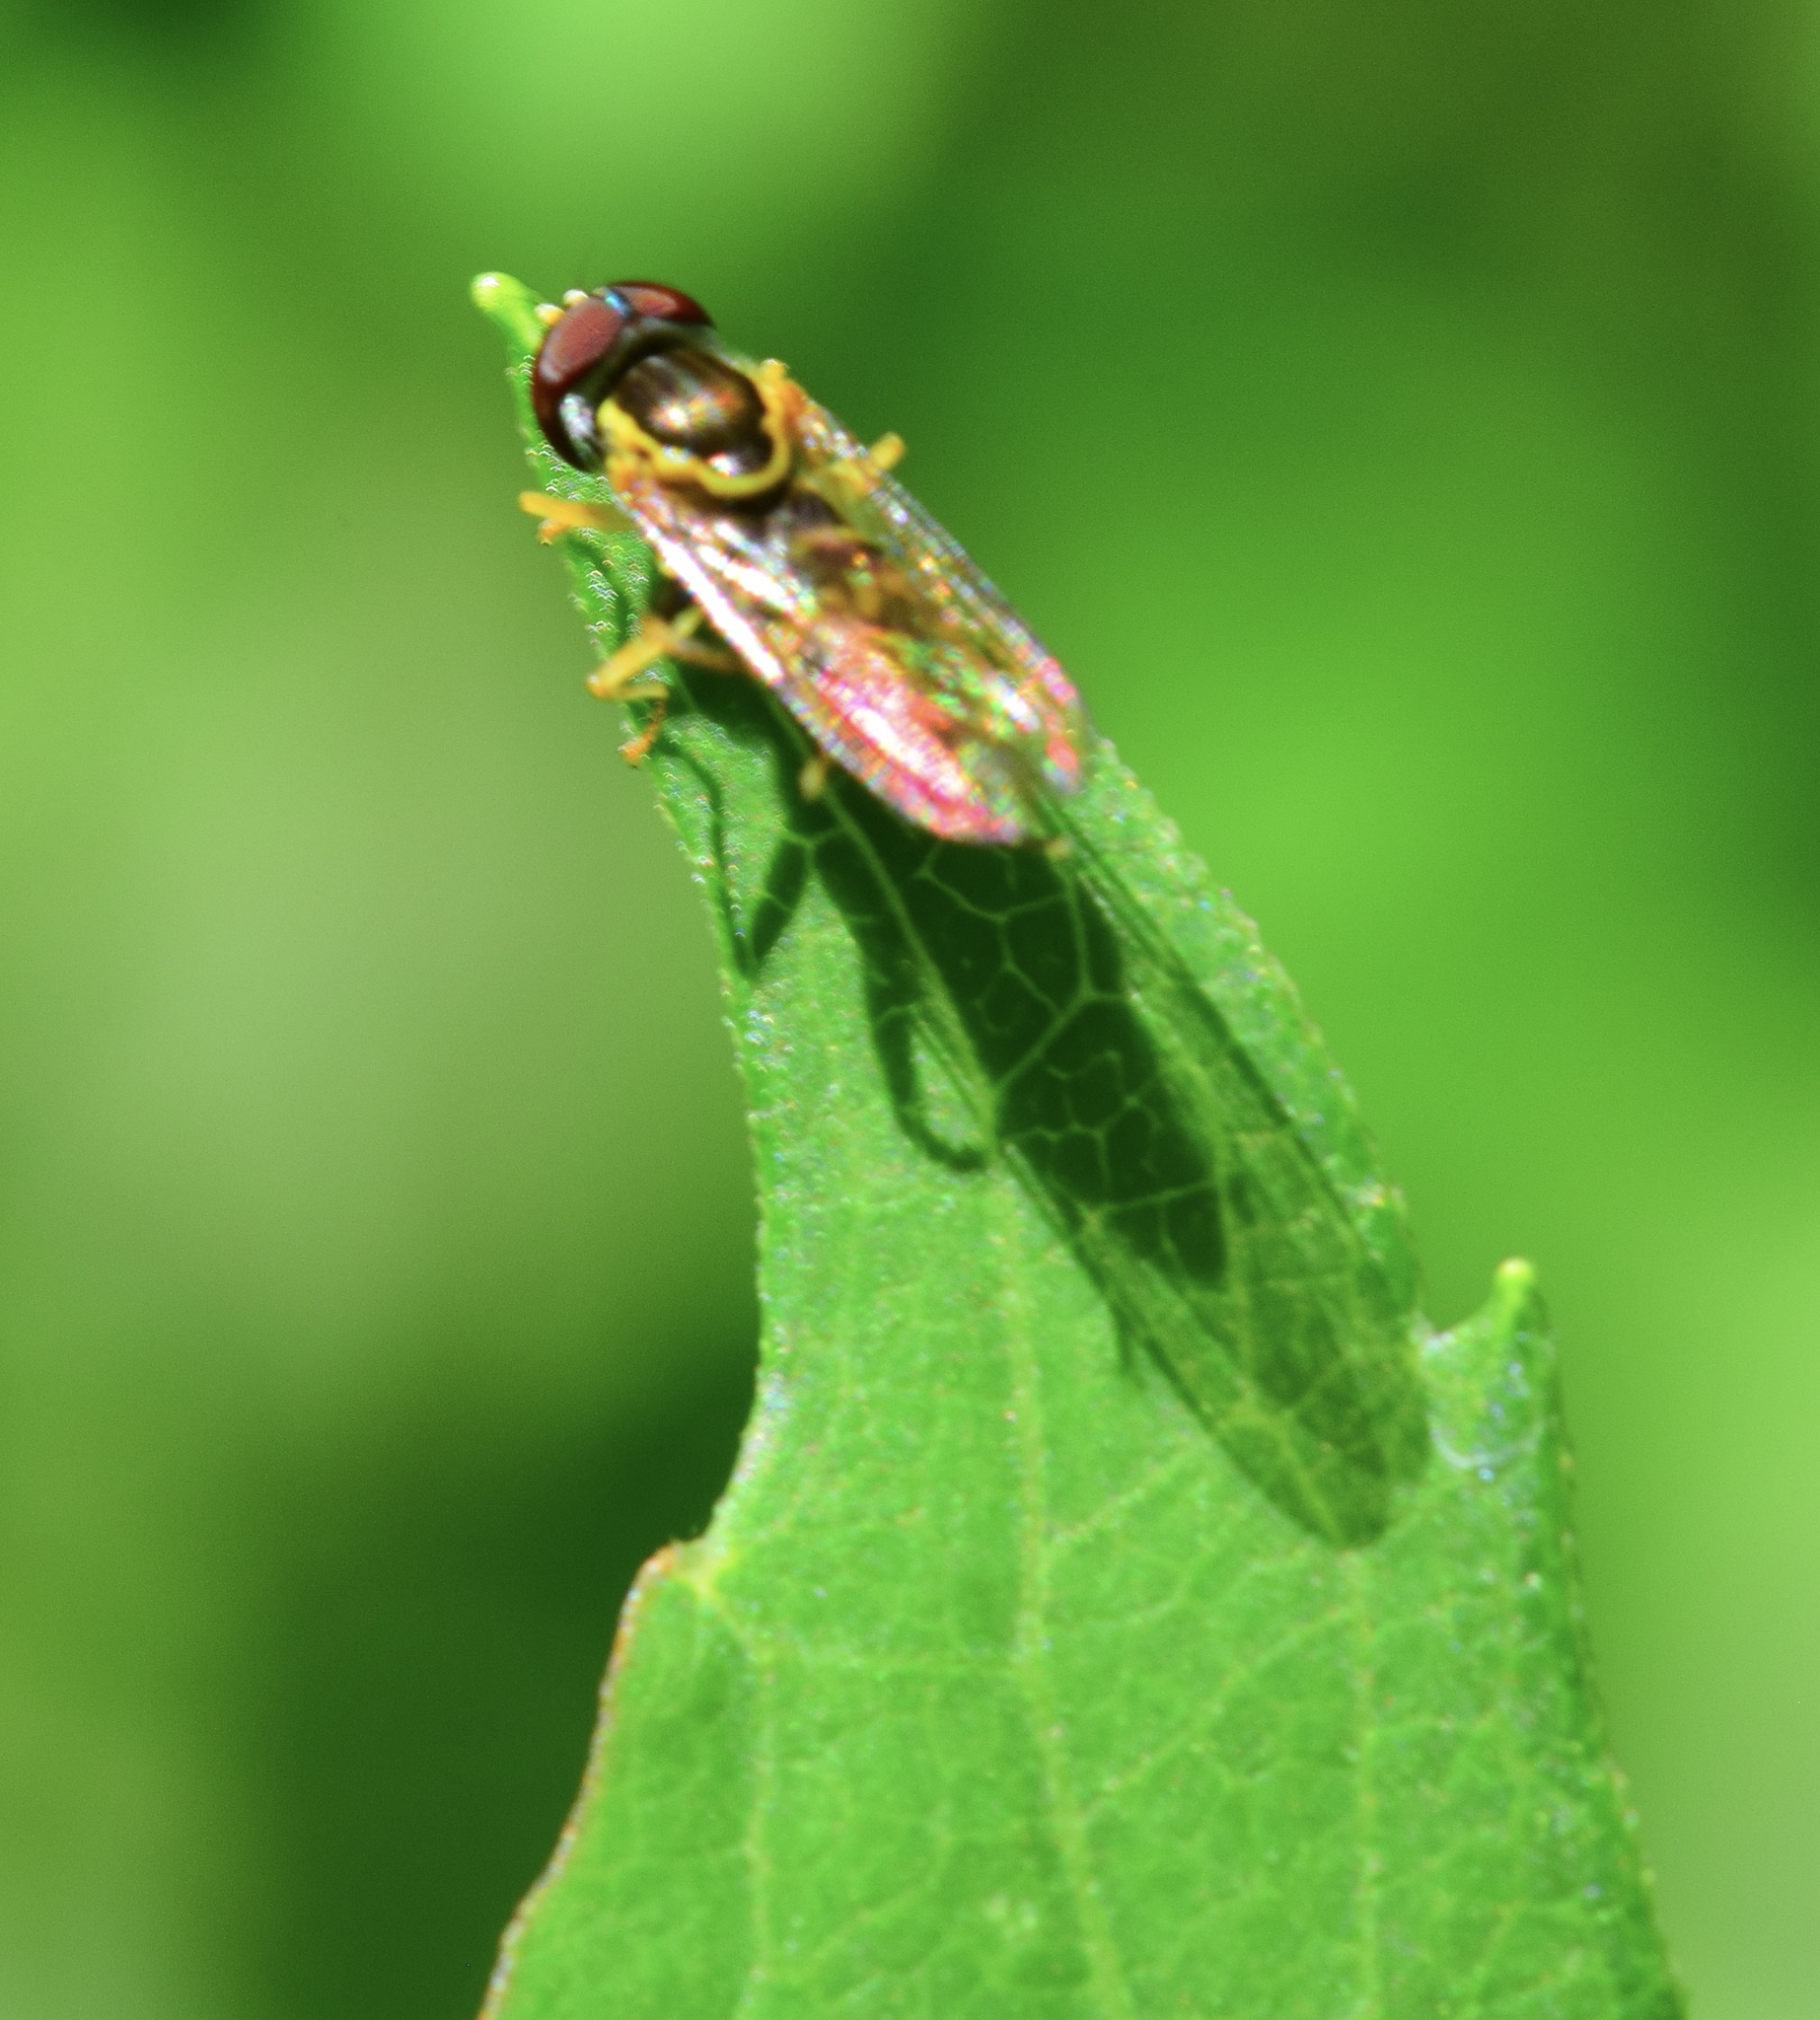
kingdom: Animalia
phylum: Arthropoda
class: Insecta
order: Diptera
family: Syrphidae
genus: Toxomerus
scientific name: Toxomerus geminatus
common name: Eastern calligrapher
